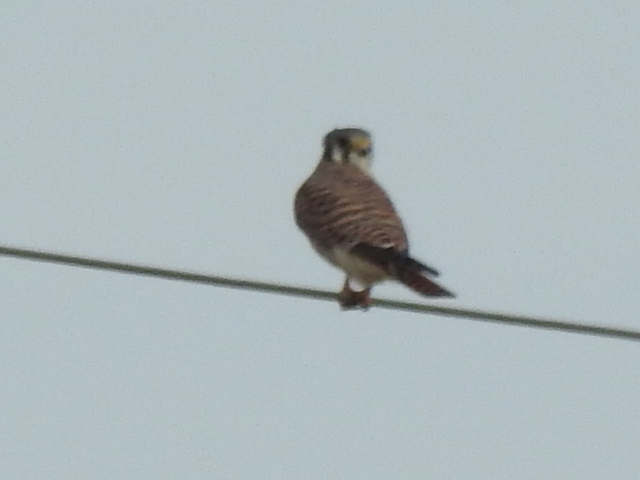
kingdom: Animalia
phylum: Chordata
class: Aves
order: Falconiformes
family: Falconidae
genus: Falco
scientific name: Falco sparverius
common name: American kestrel
